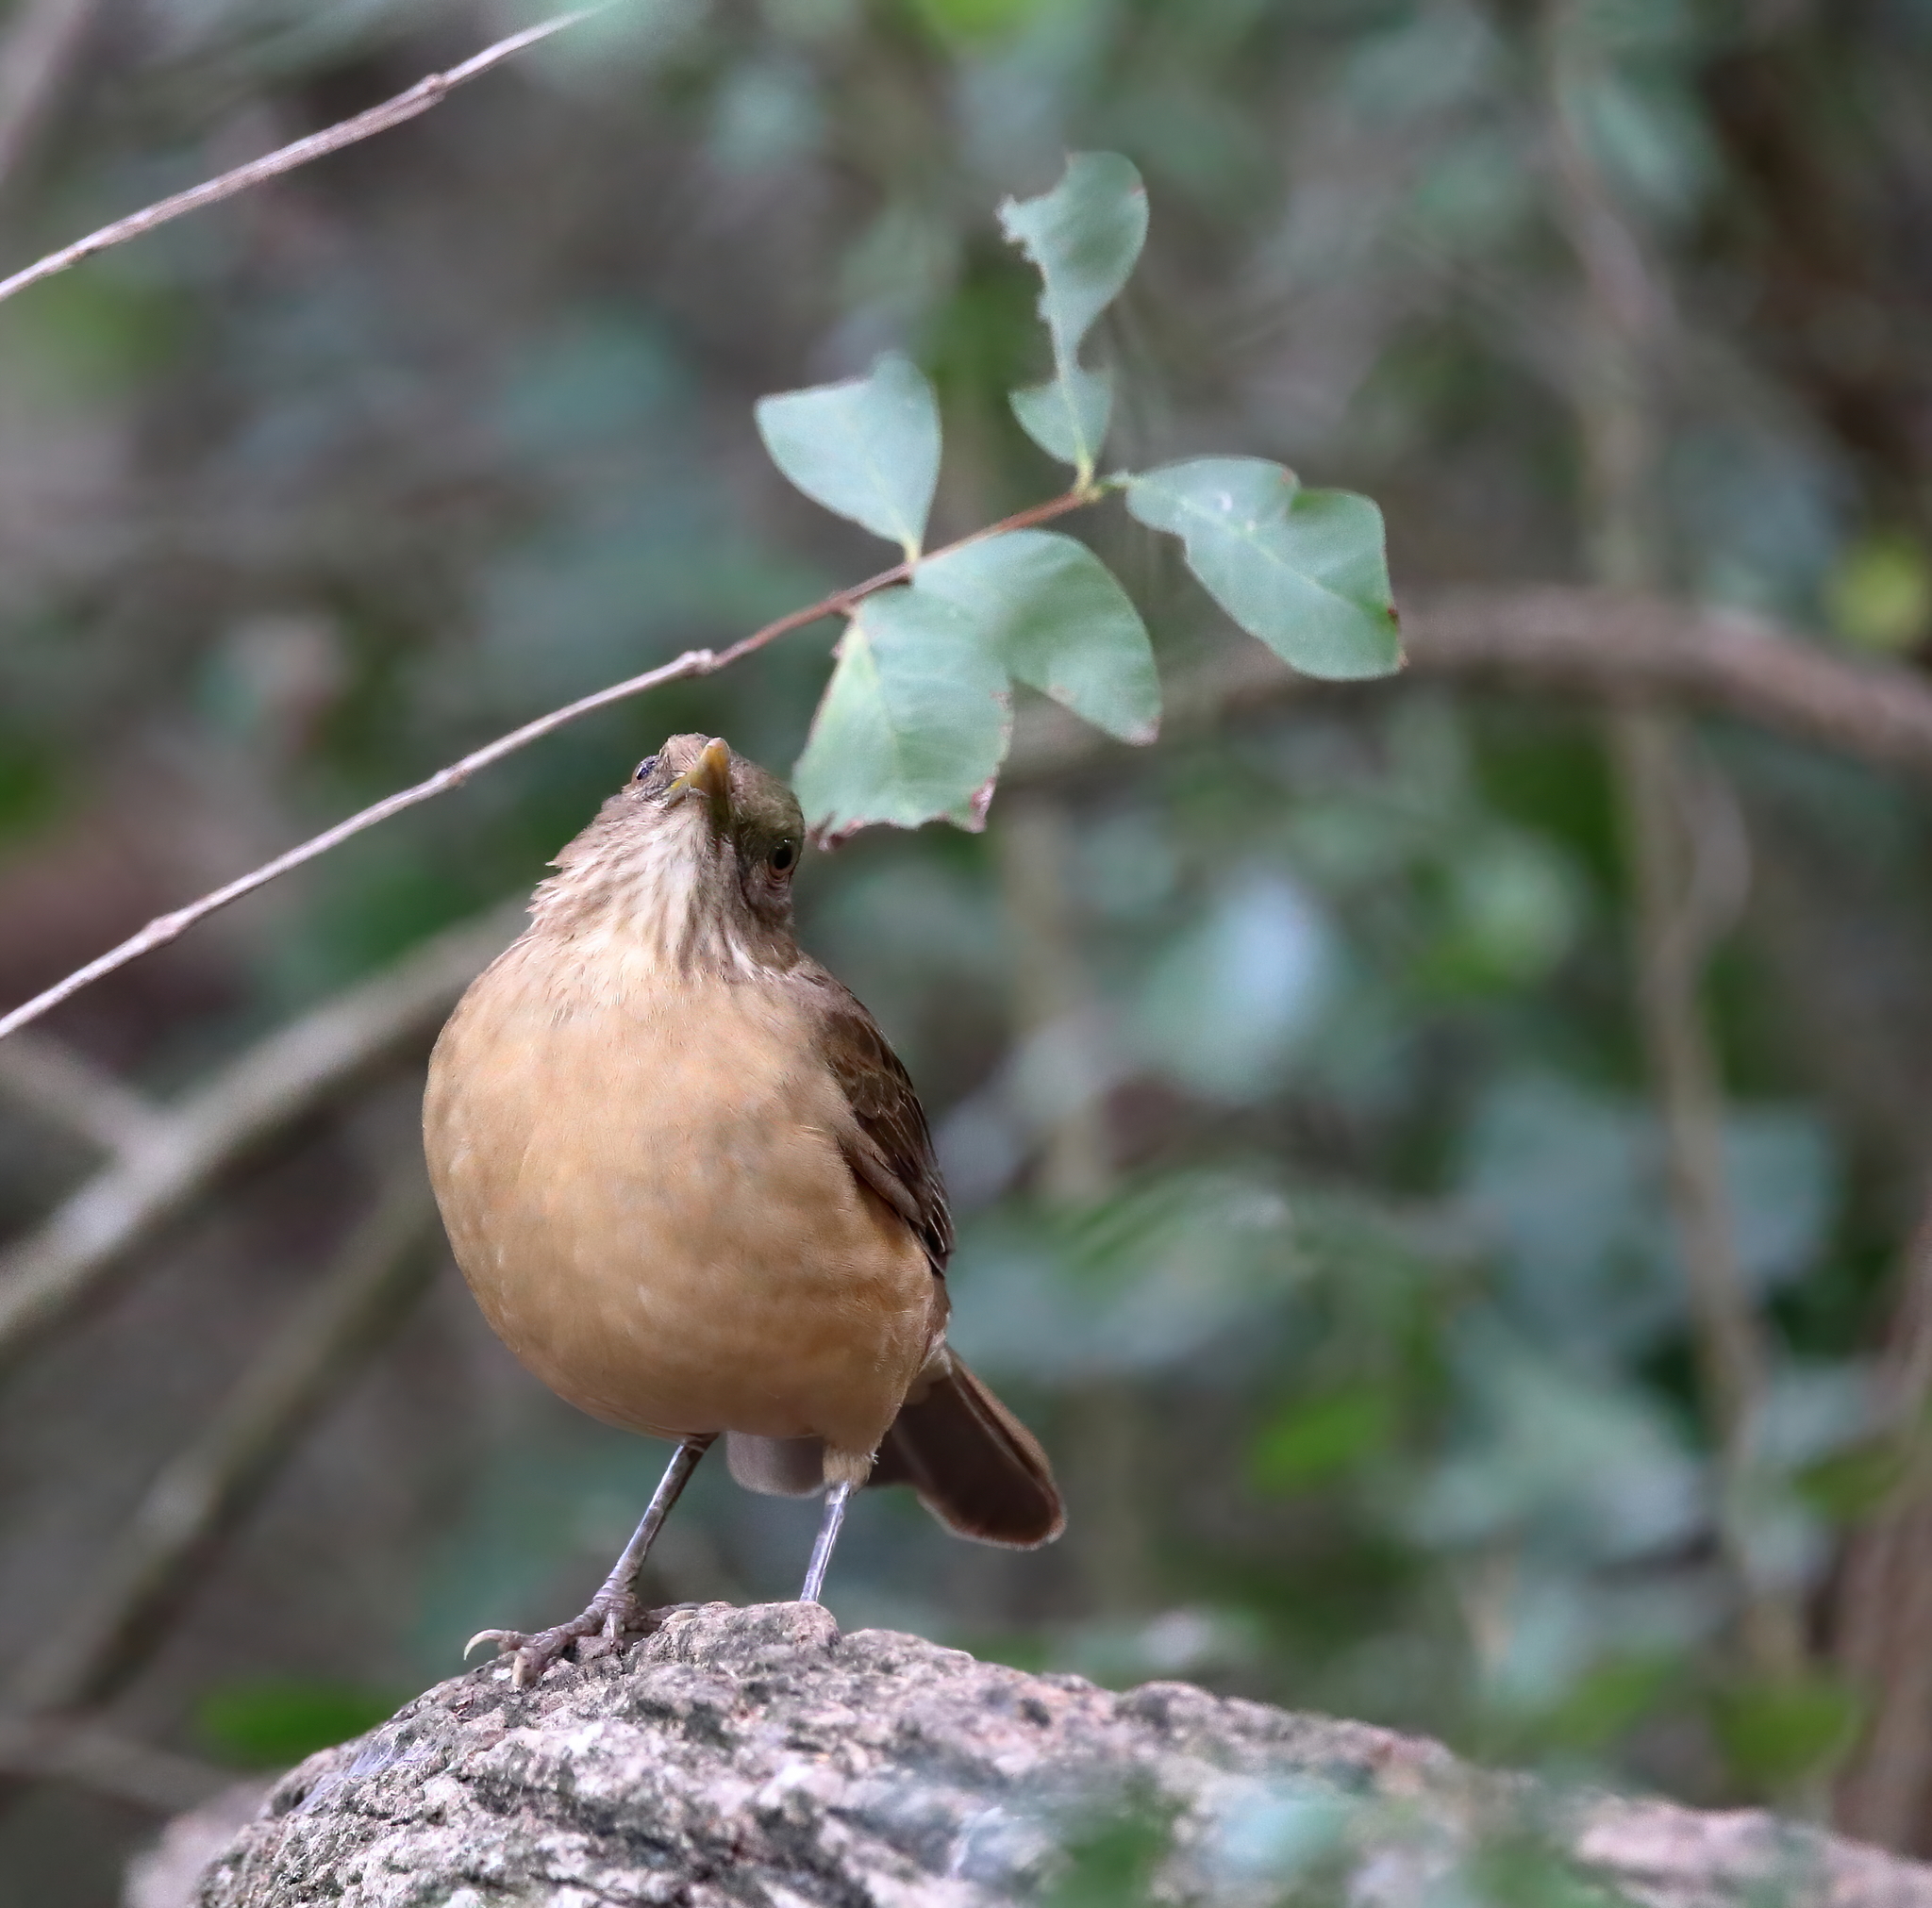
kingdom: Animalia
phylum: Chordata
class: Aves
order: Passeriformes
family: Turdidae
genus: Turdus
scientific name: Turdus grayi
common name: Clay-colored thrush
